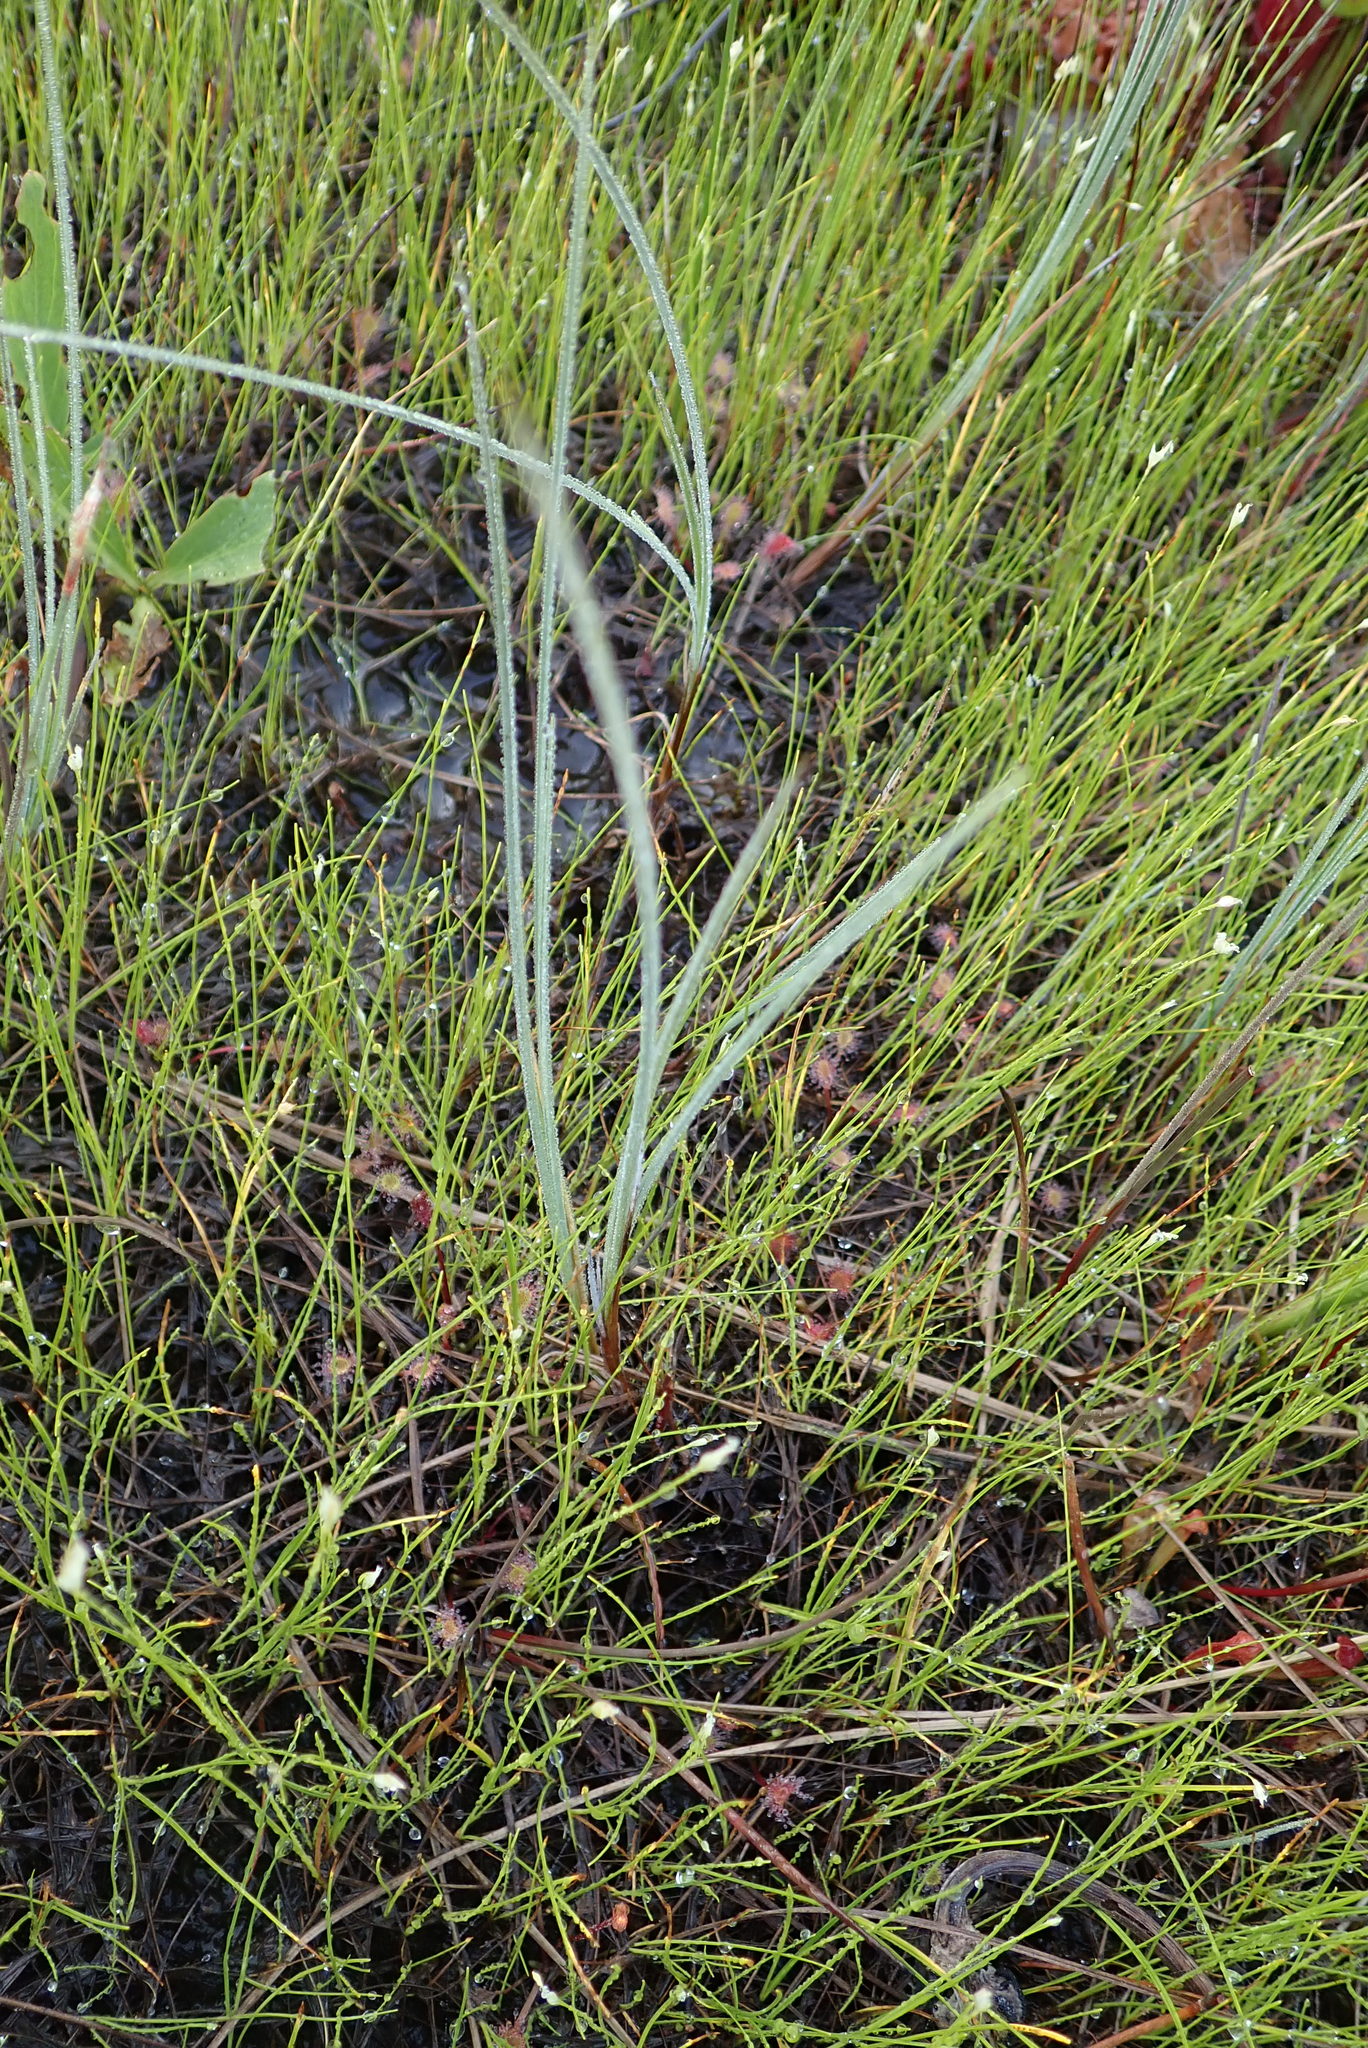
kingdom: Plantae
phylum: Tracheophyta
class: Liliopsida
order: Poales
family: Cyperaceae
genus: Carex
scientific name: Carex livida
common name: Livid sedge
